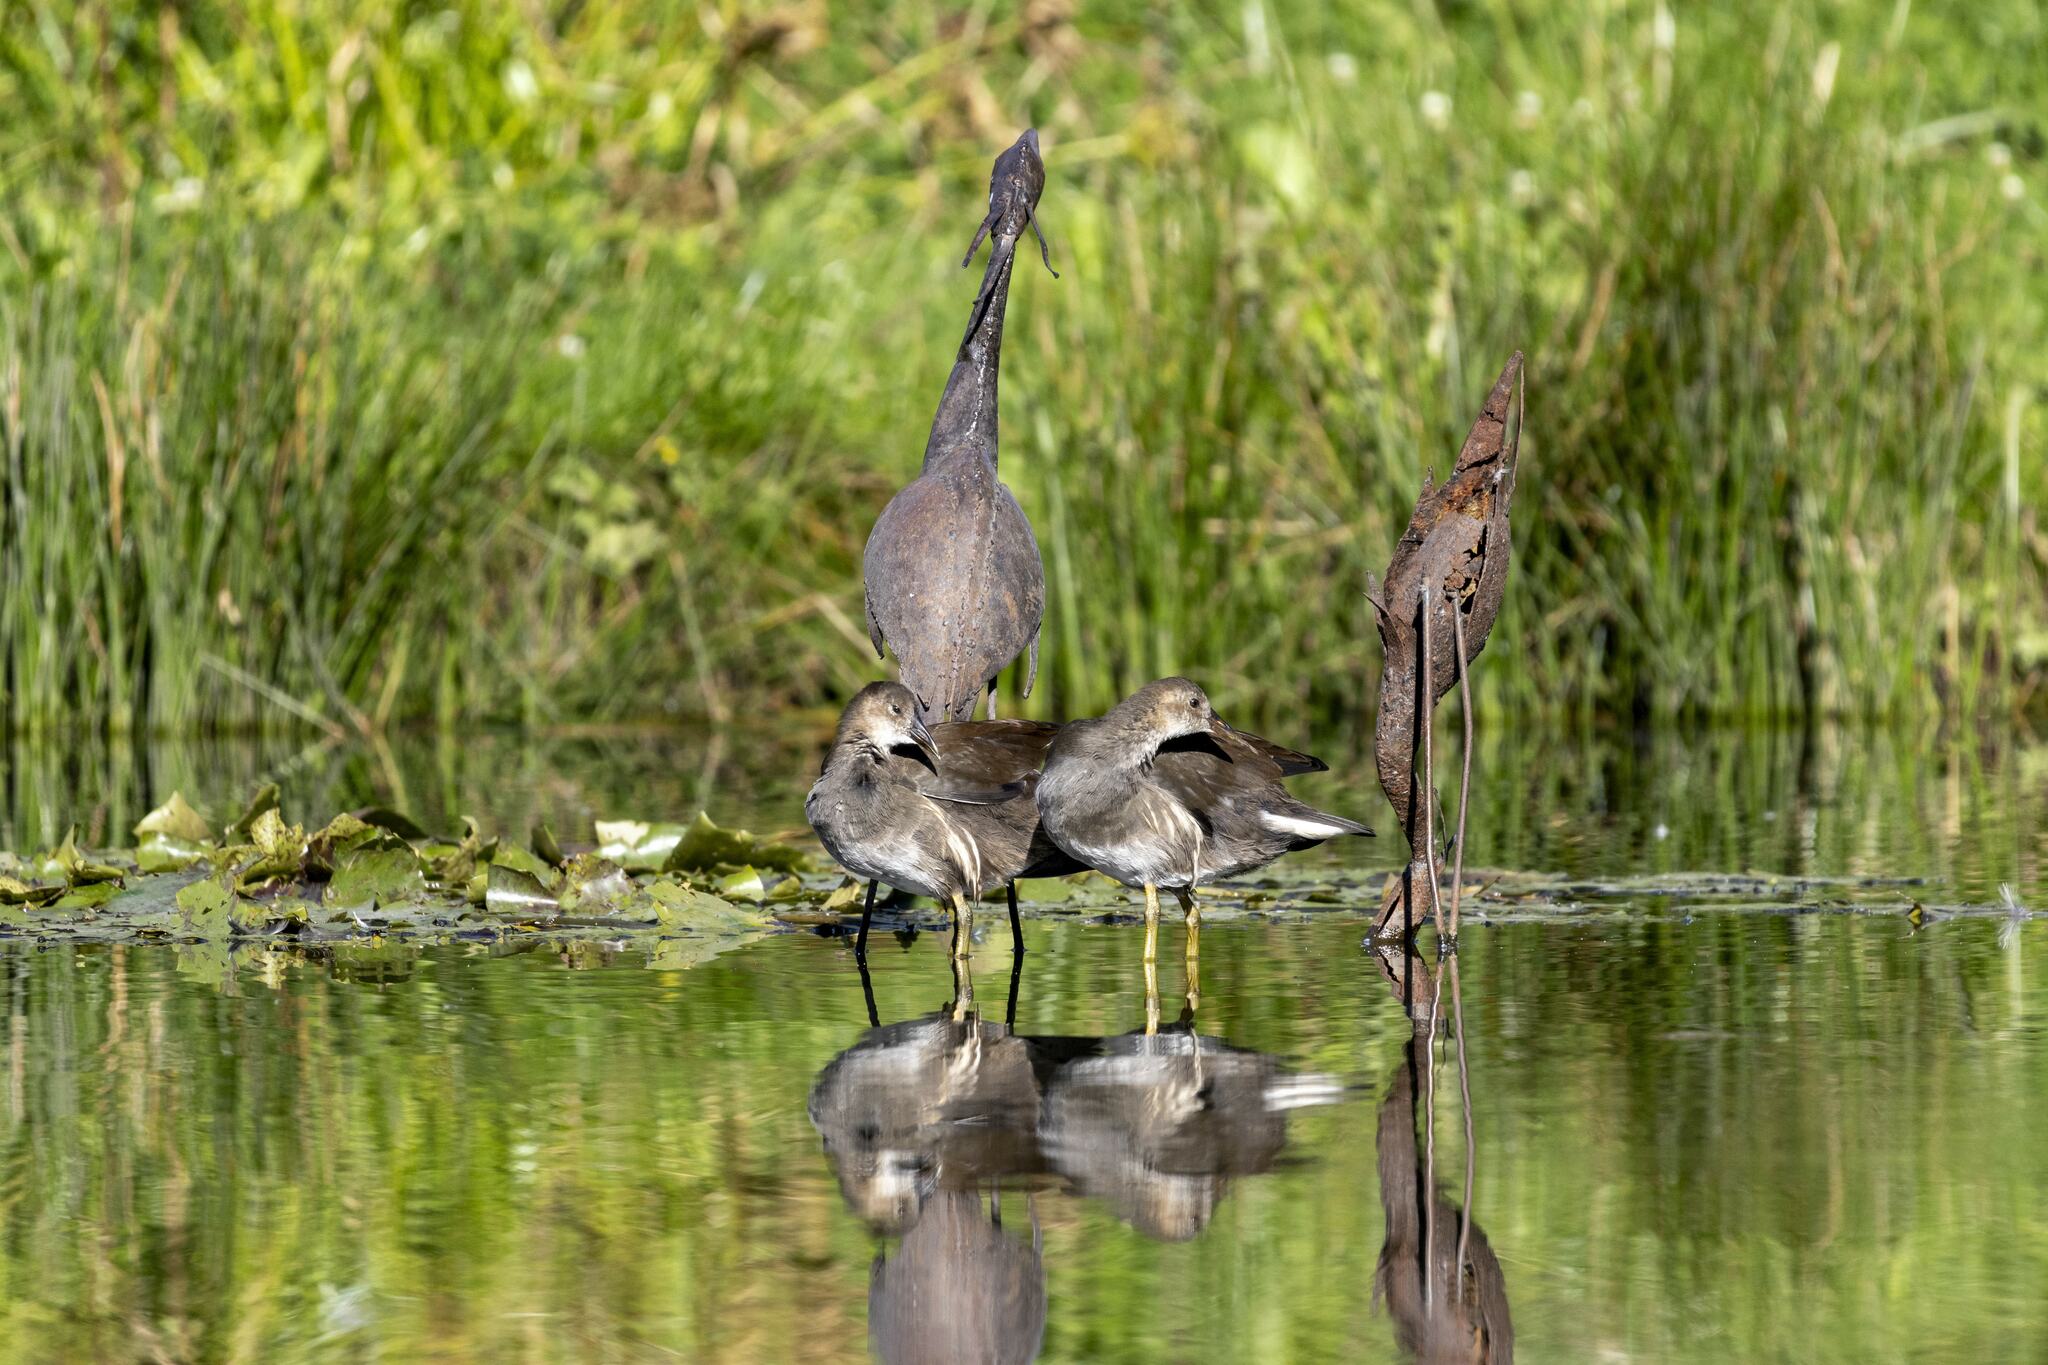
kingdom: Animalia
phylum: Chordata
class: Aves
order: Gruiformes
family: Rallidae
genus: Gallinula
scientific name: Gallinula chloropus
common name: Common moorhen
